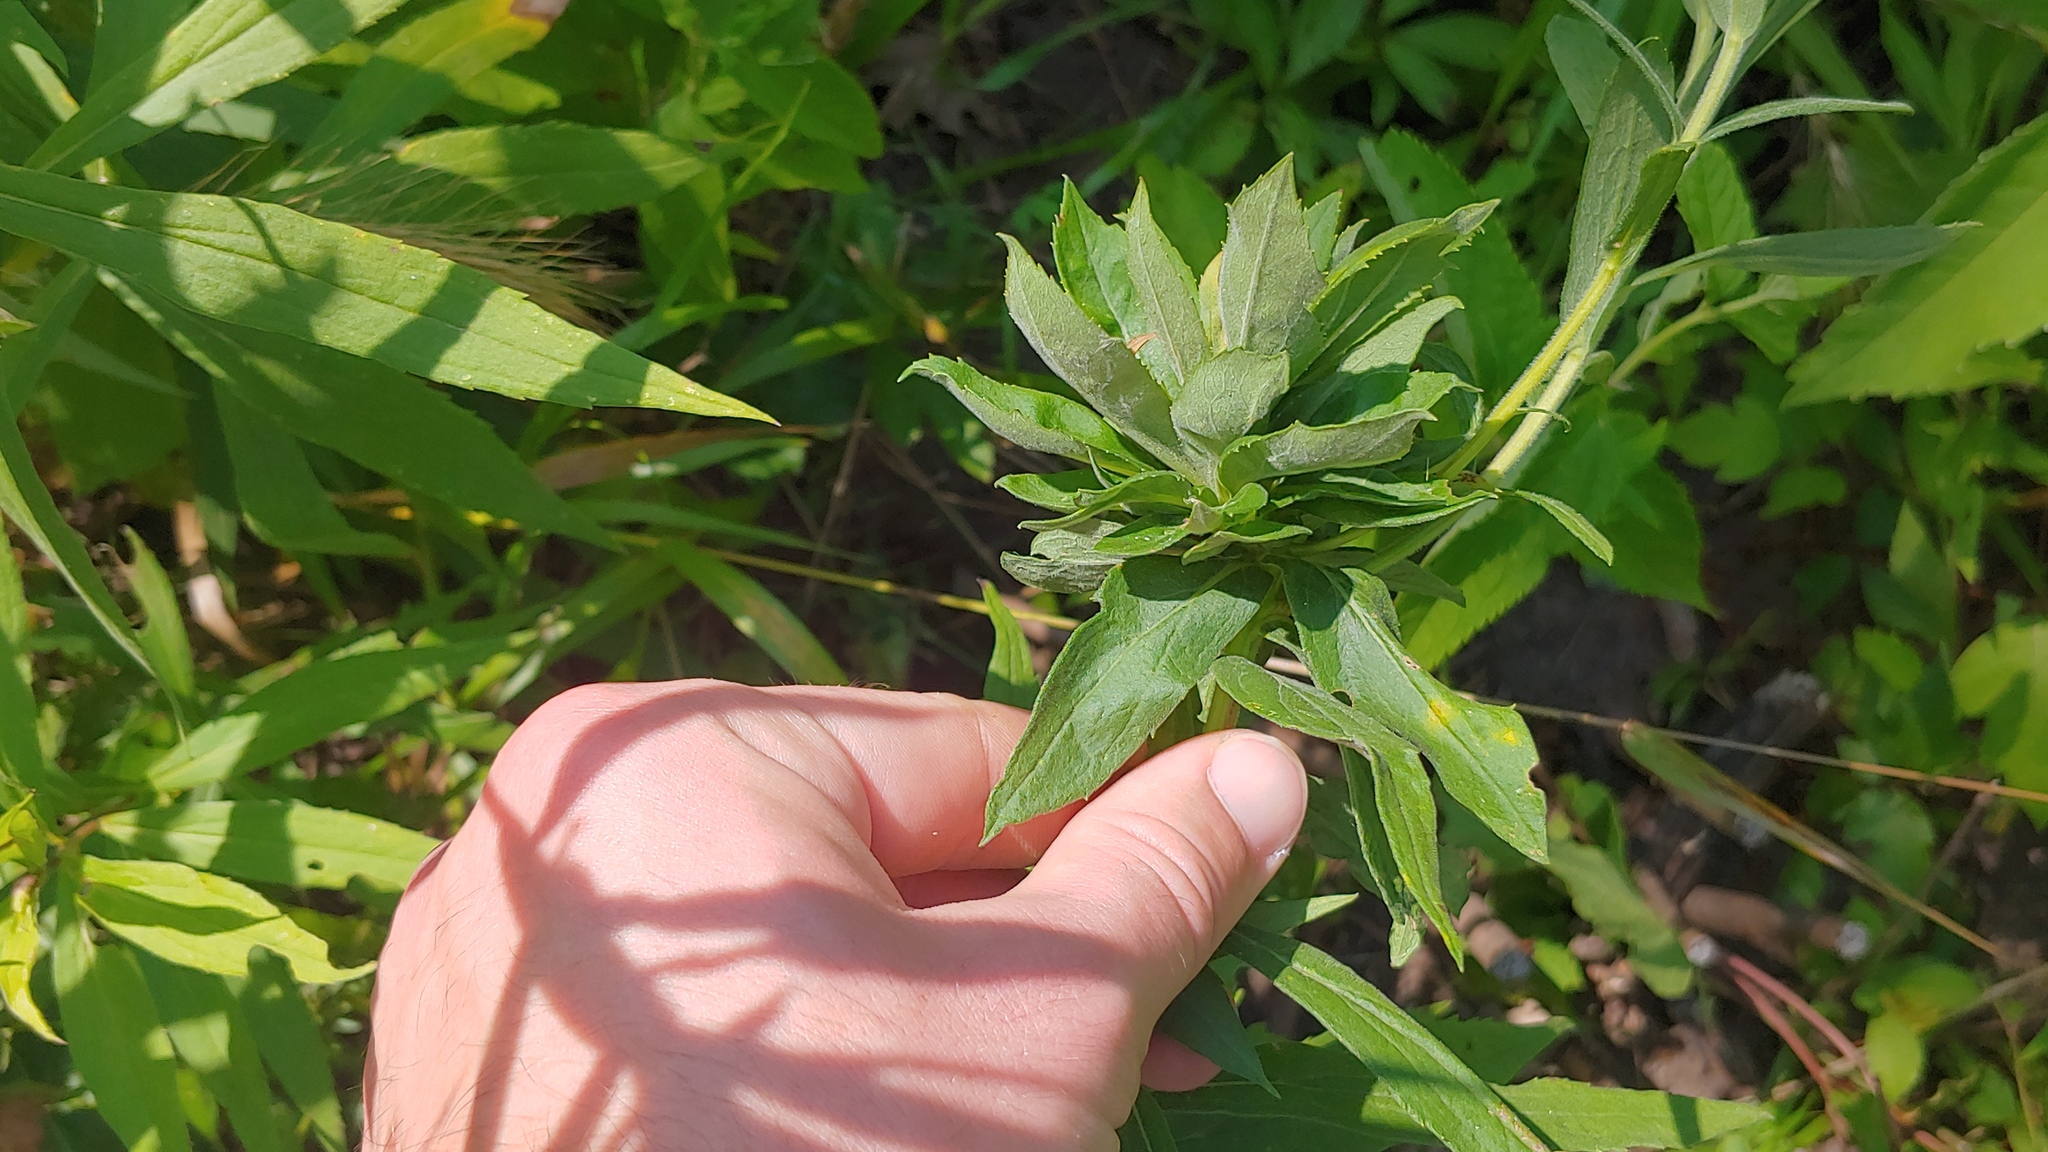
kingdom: Animalia
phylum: Arthropoda
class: Insecta
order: Diptera
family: Cecidomyiidae
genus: Rhopalomyia
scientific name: Rhopalomyia solidaginis
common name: Goldenrod bunch gall midge
